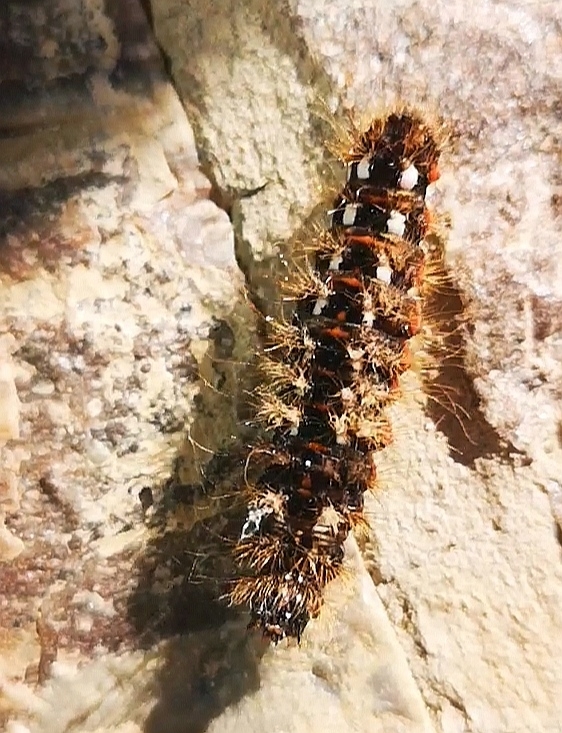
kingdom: Animalia
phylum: Arthropoda
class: Insecta
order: Lepidoptera
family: Noctuidae
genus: Acronicta
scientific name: Acronicta rumicis
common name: Knot grass
